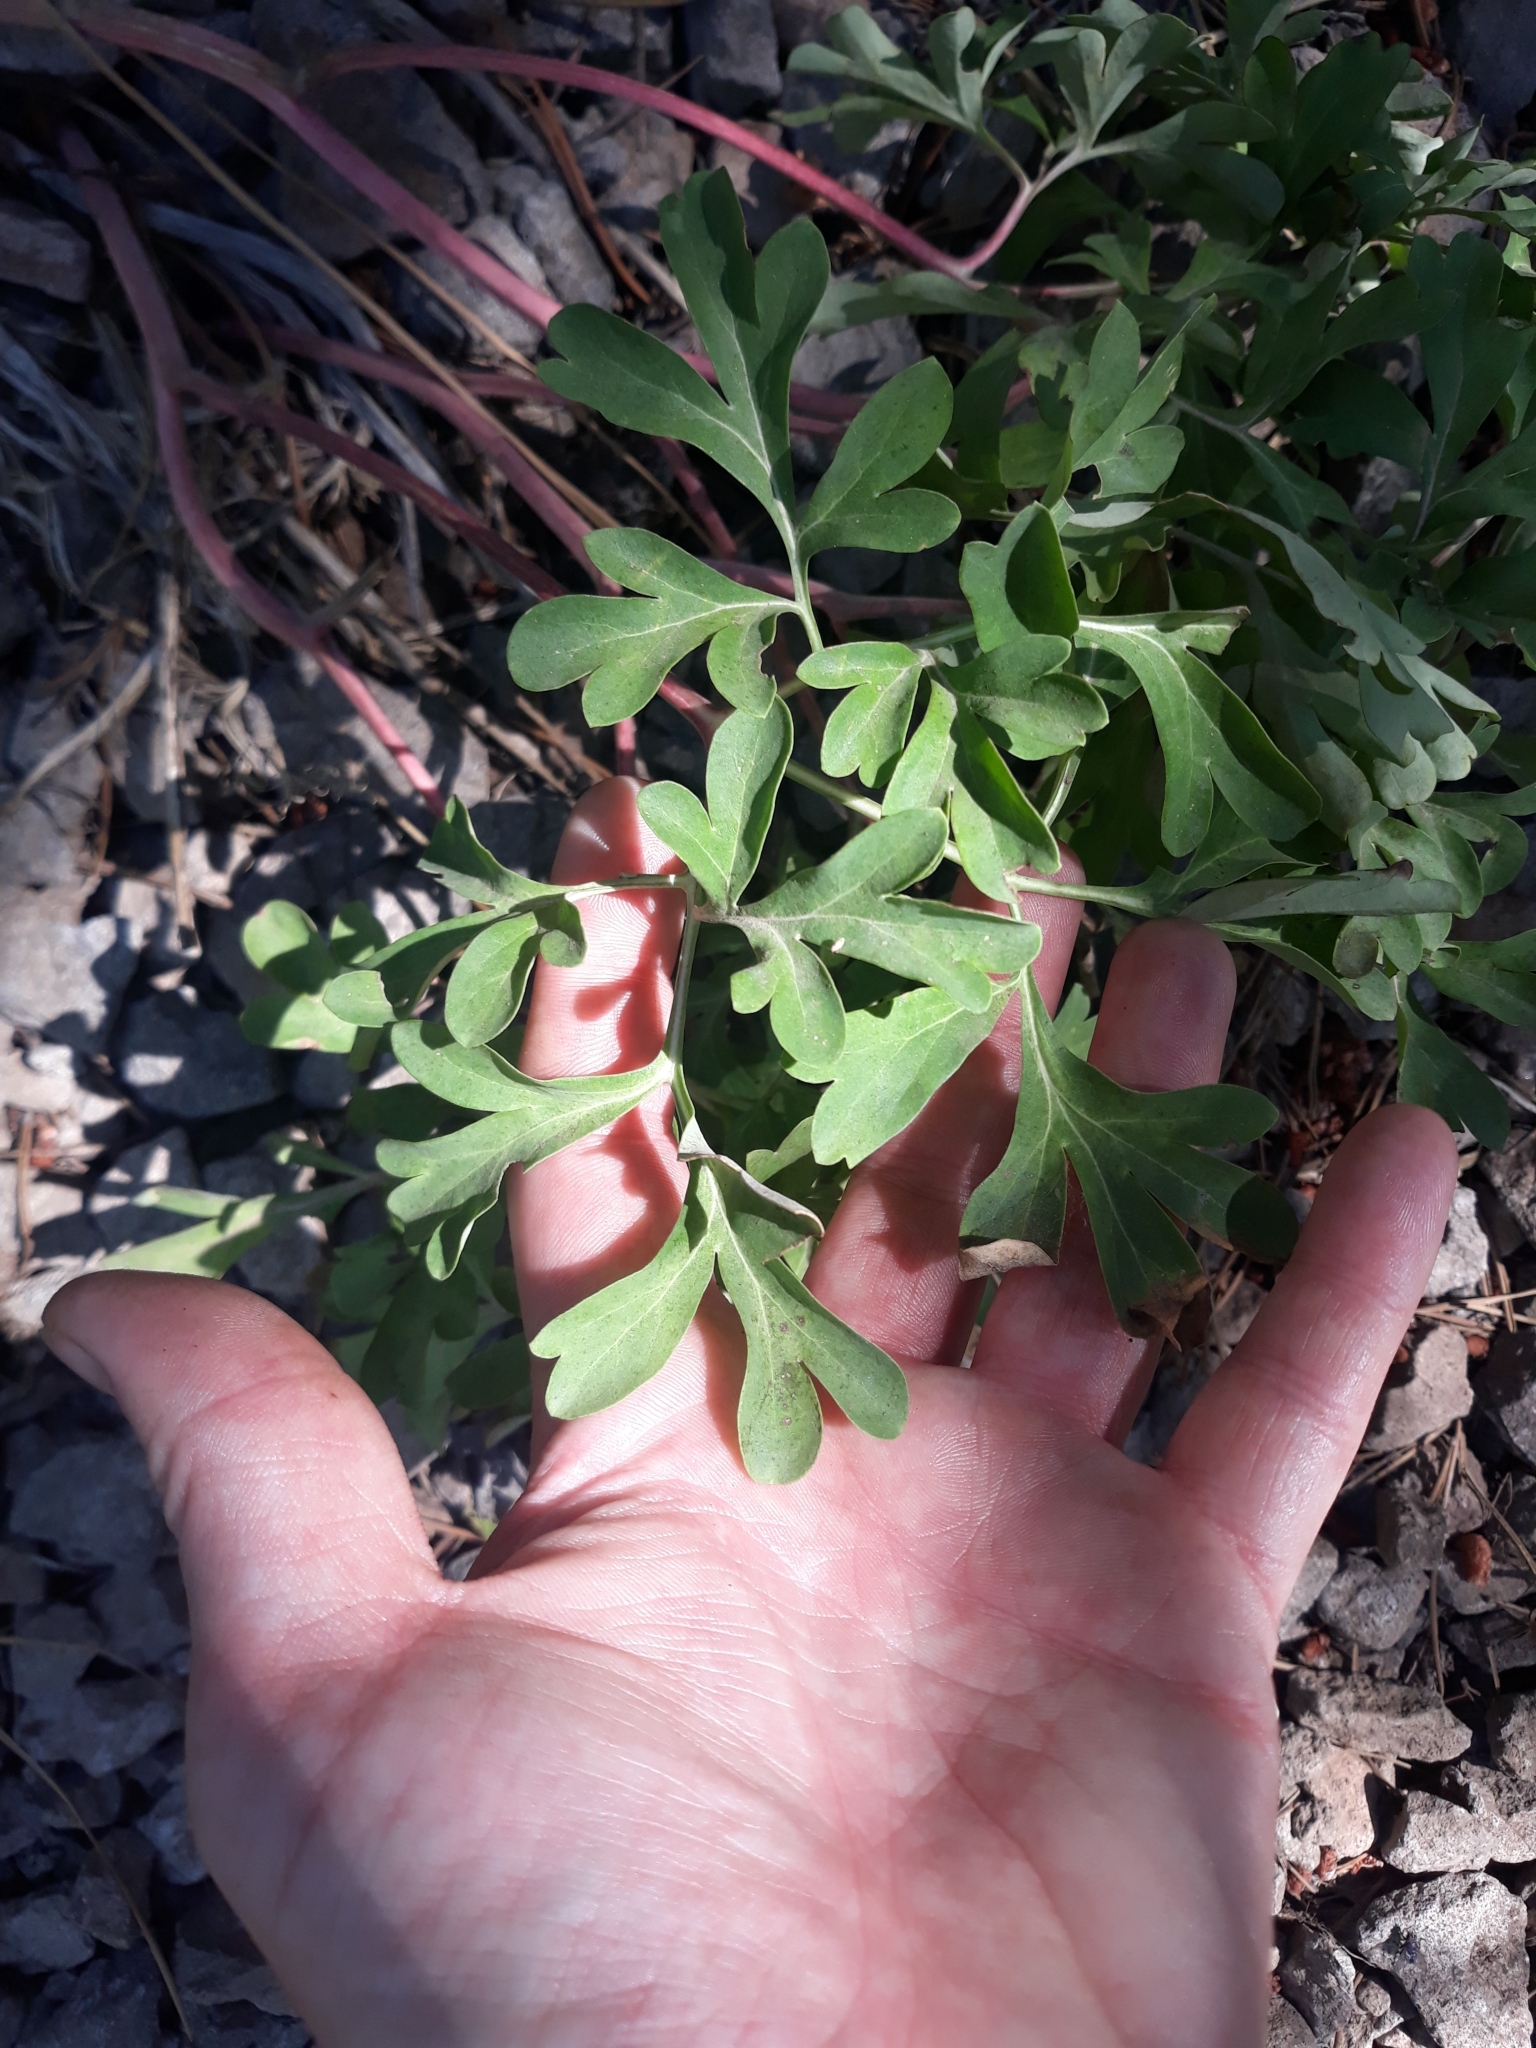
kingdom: Plantae
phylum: Tracheophyta
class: Magnoliopsida
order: Saxifragales
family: Paeoniaceae
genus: Paeonia
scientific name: Paeonia brownii
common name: Brown's peony
